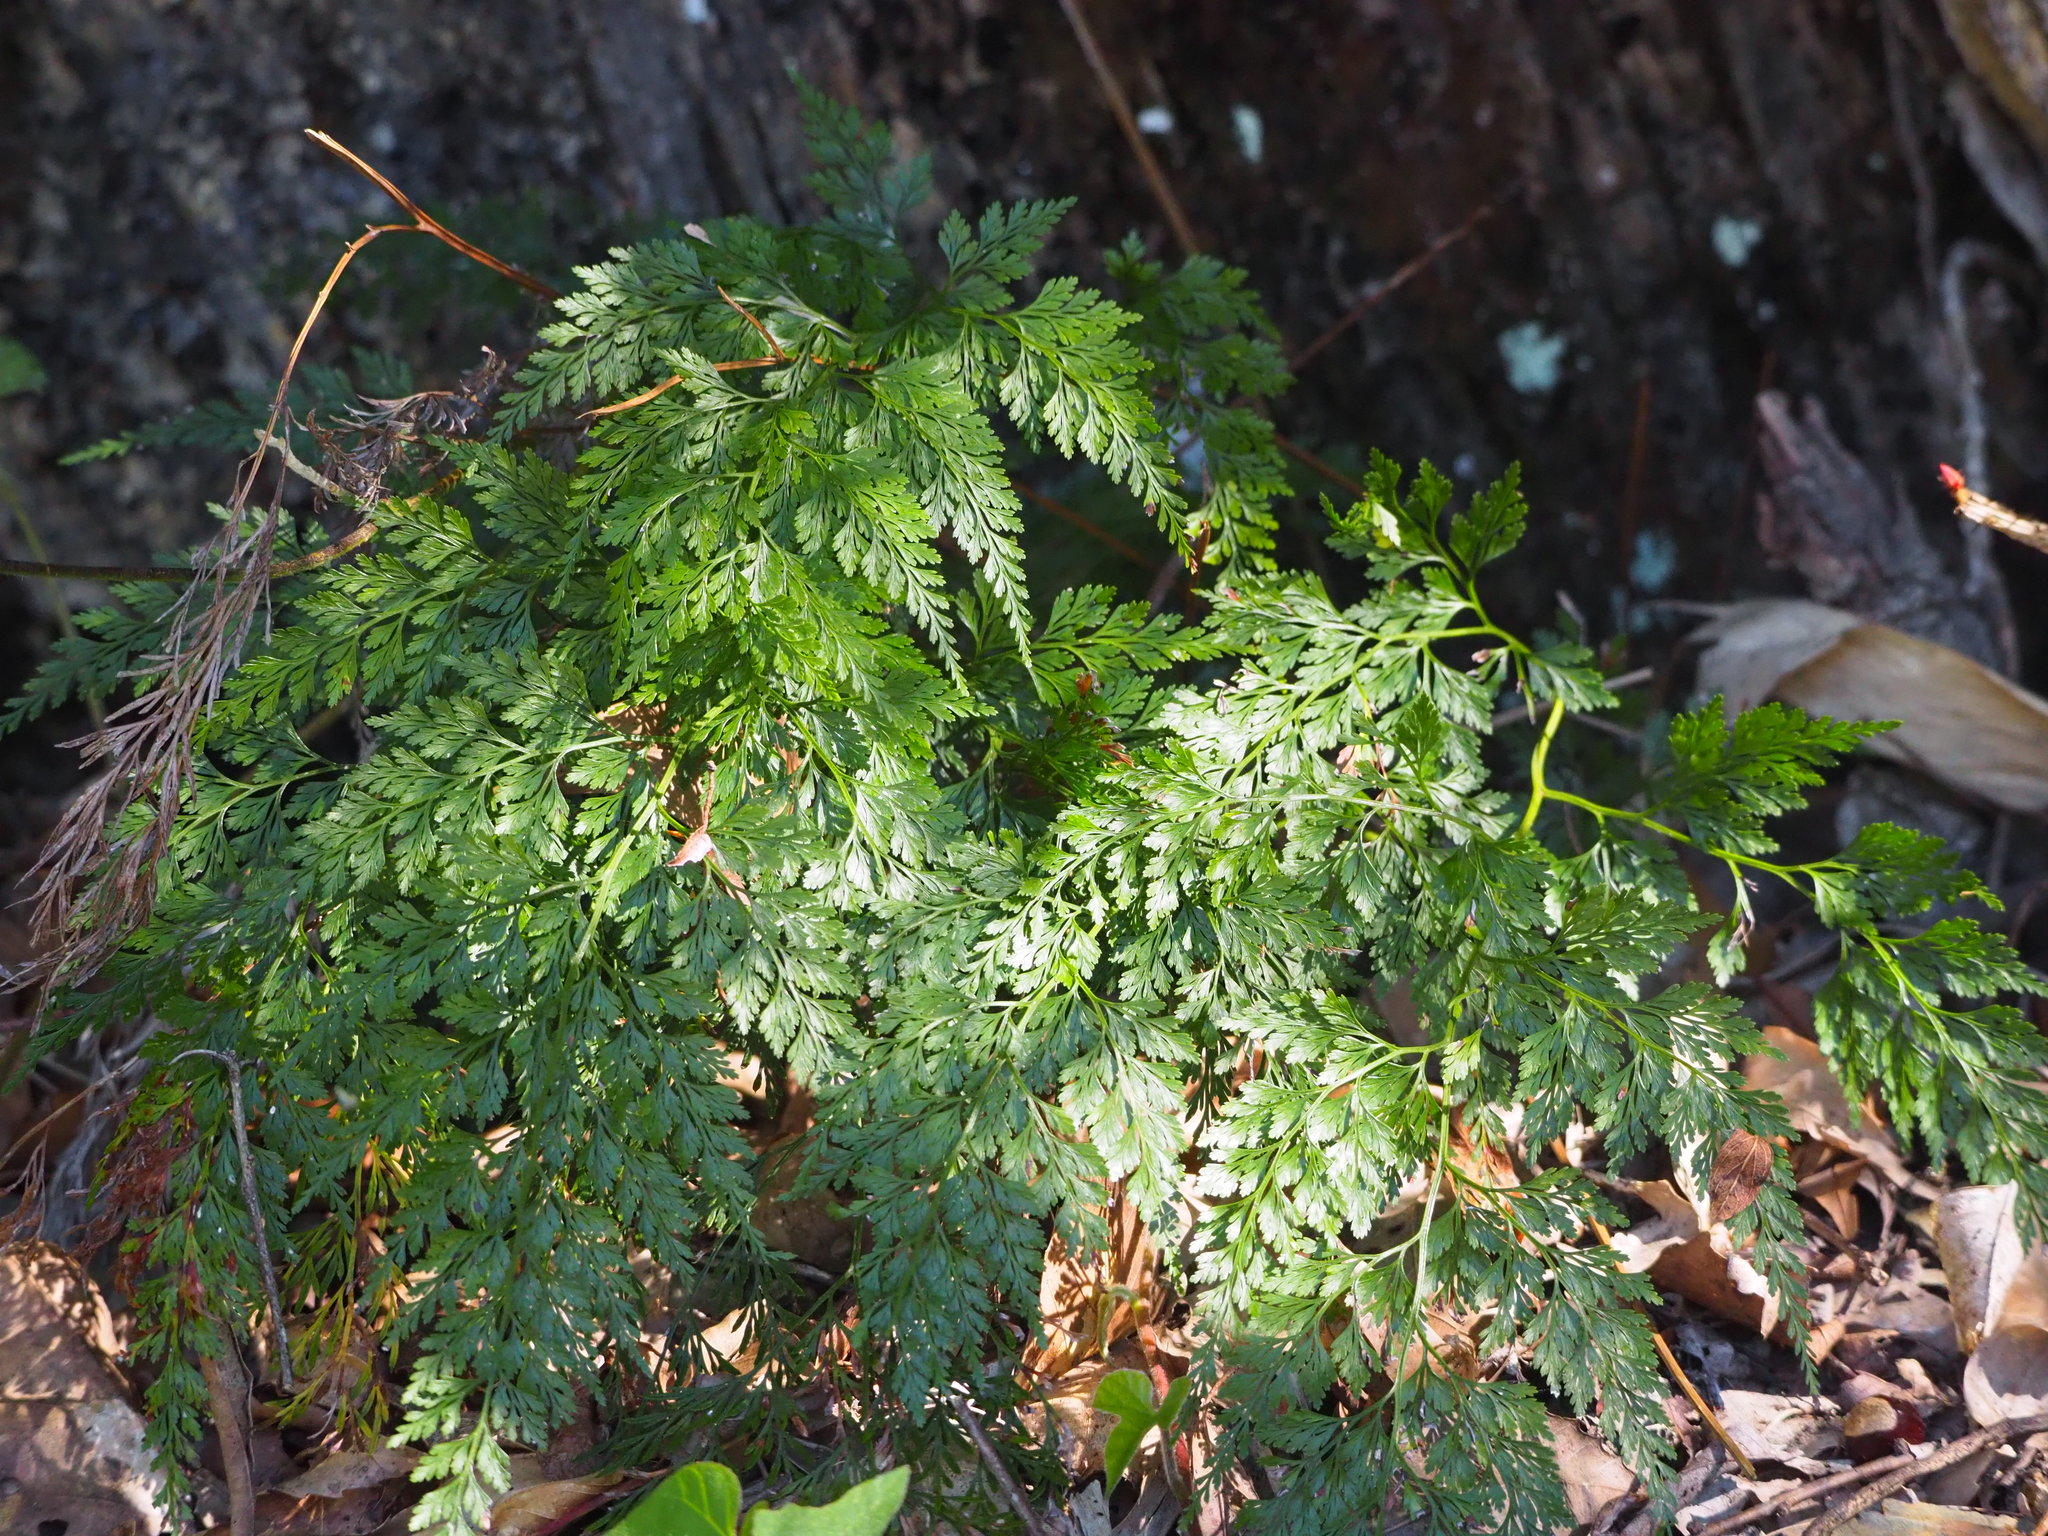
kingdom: Plantae
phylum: Tracheophyta
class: Polypodiopsida
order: Polypodiales
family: Pteridaceae
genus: Onychium
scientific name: Onychium japonicum
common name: Carrot fern
